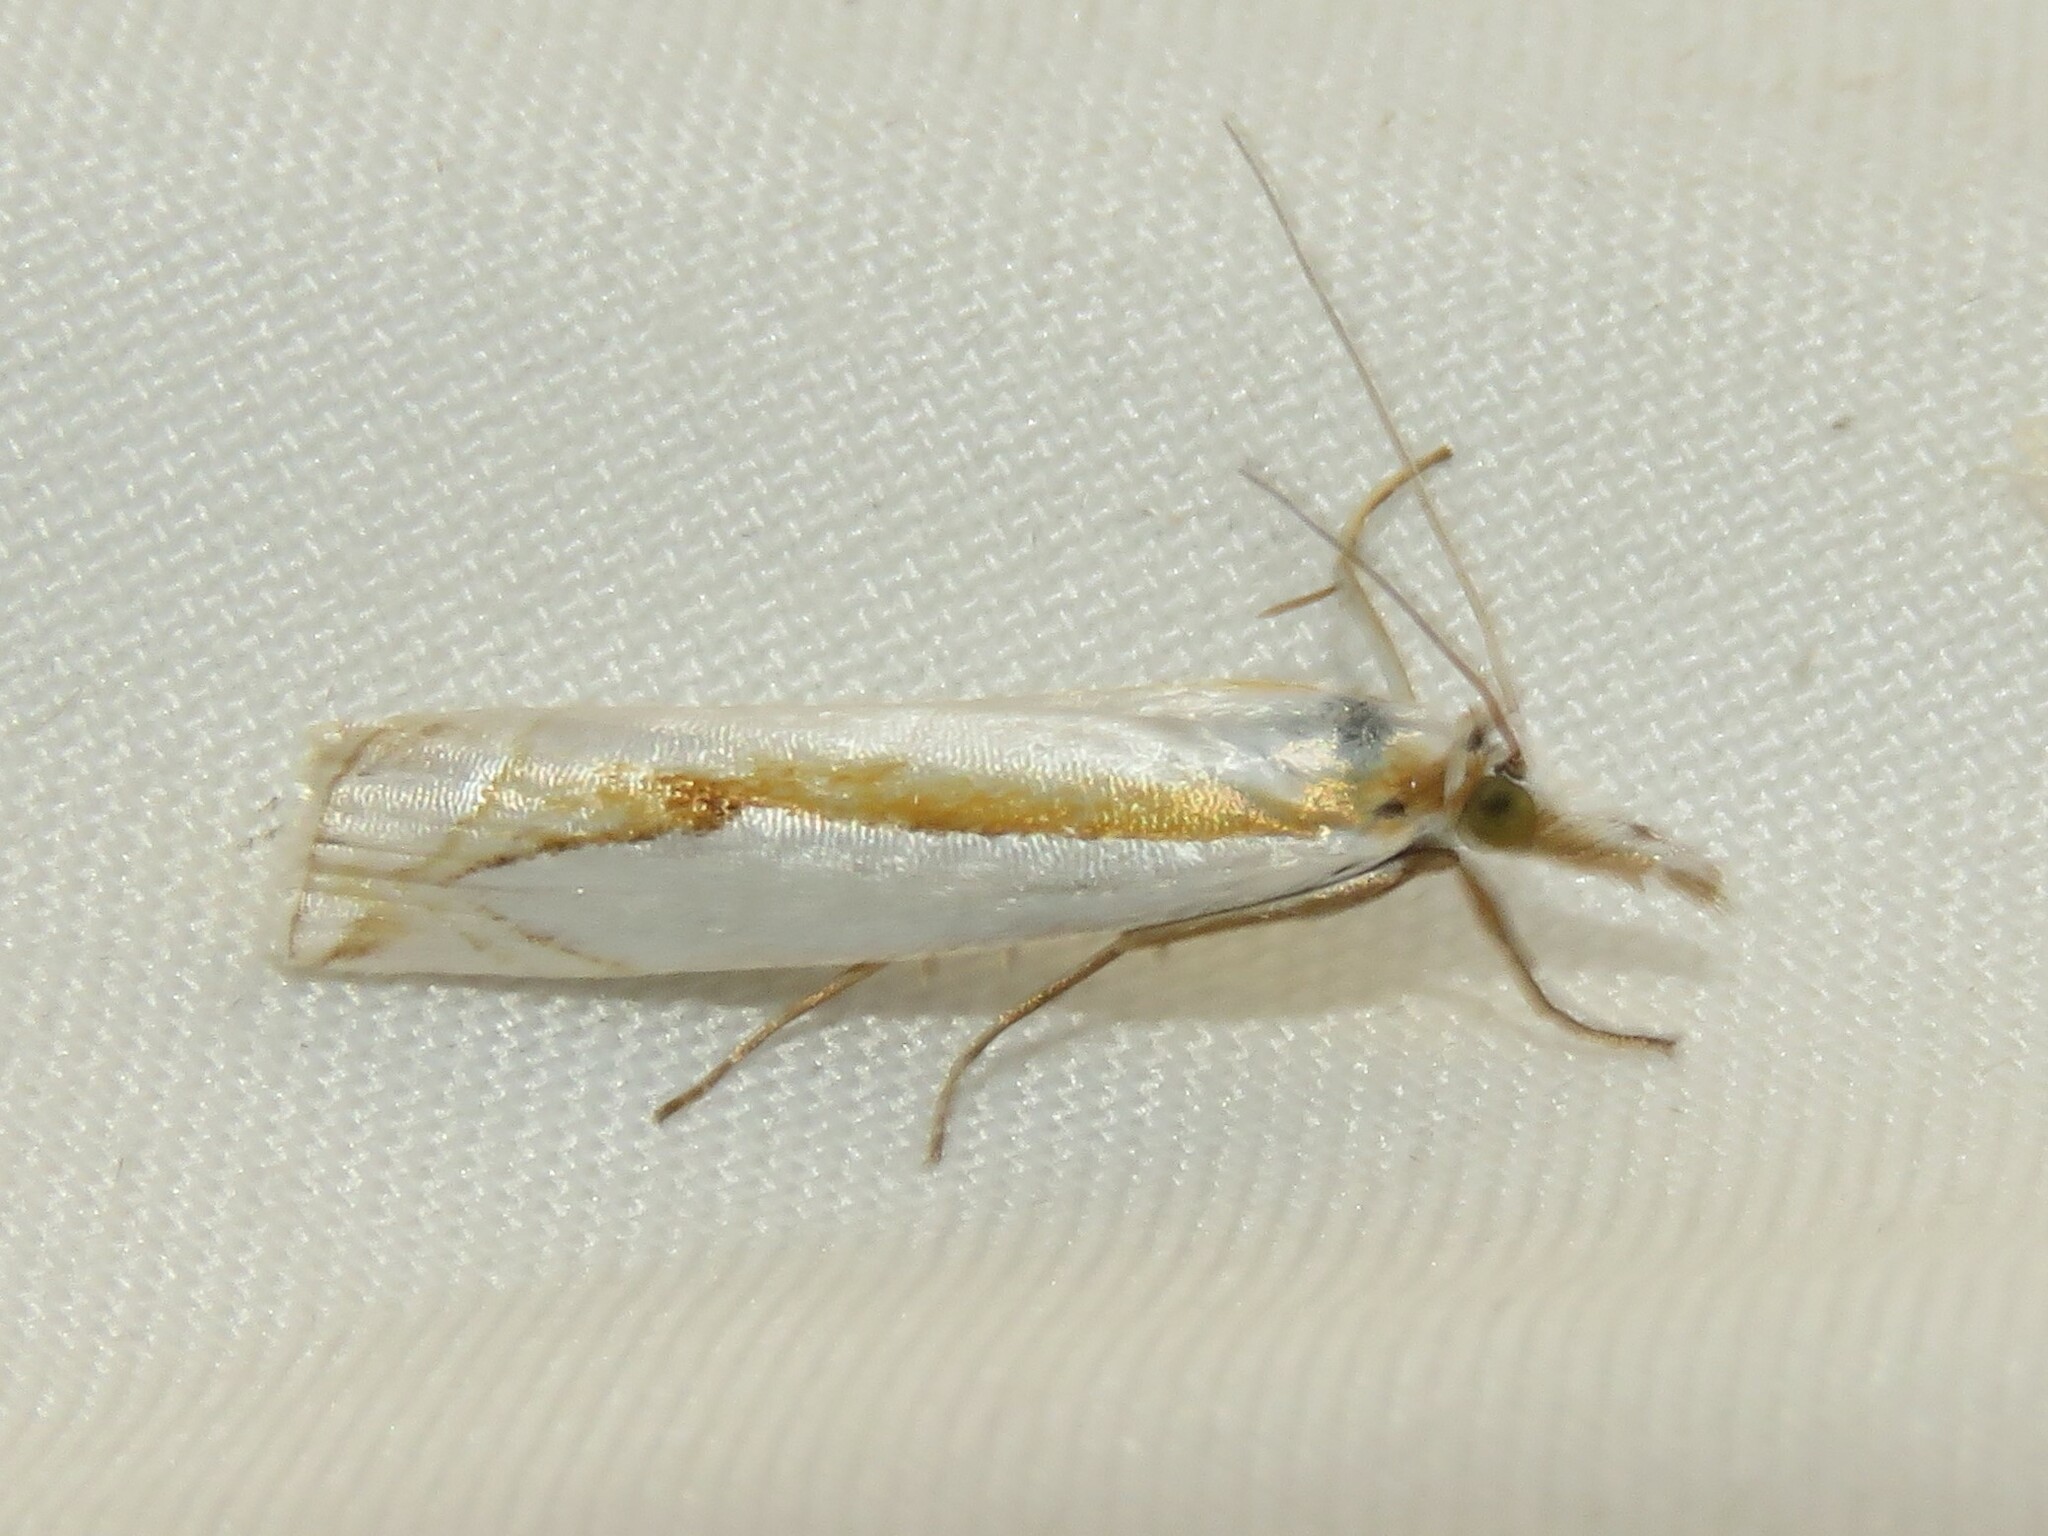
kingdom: Animalia
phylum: Arthropoda
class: Insecta
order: Lepidoptera
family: Crambidae
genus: Crambus
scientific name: Crambus girardellus
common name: Girard's grass-veneer
